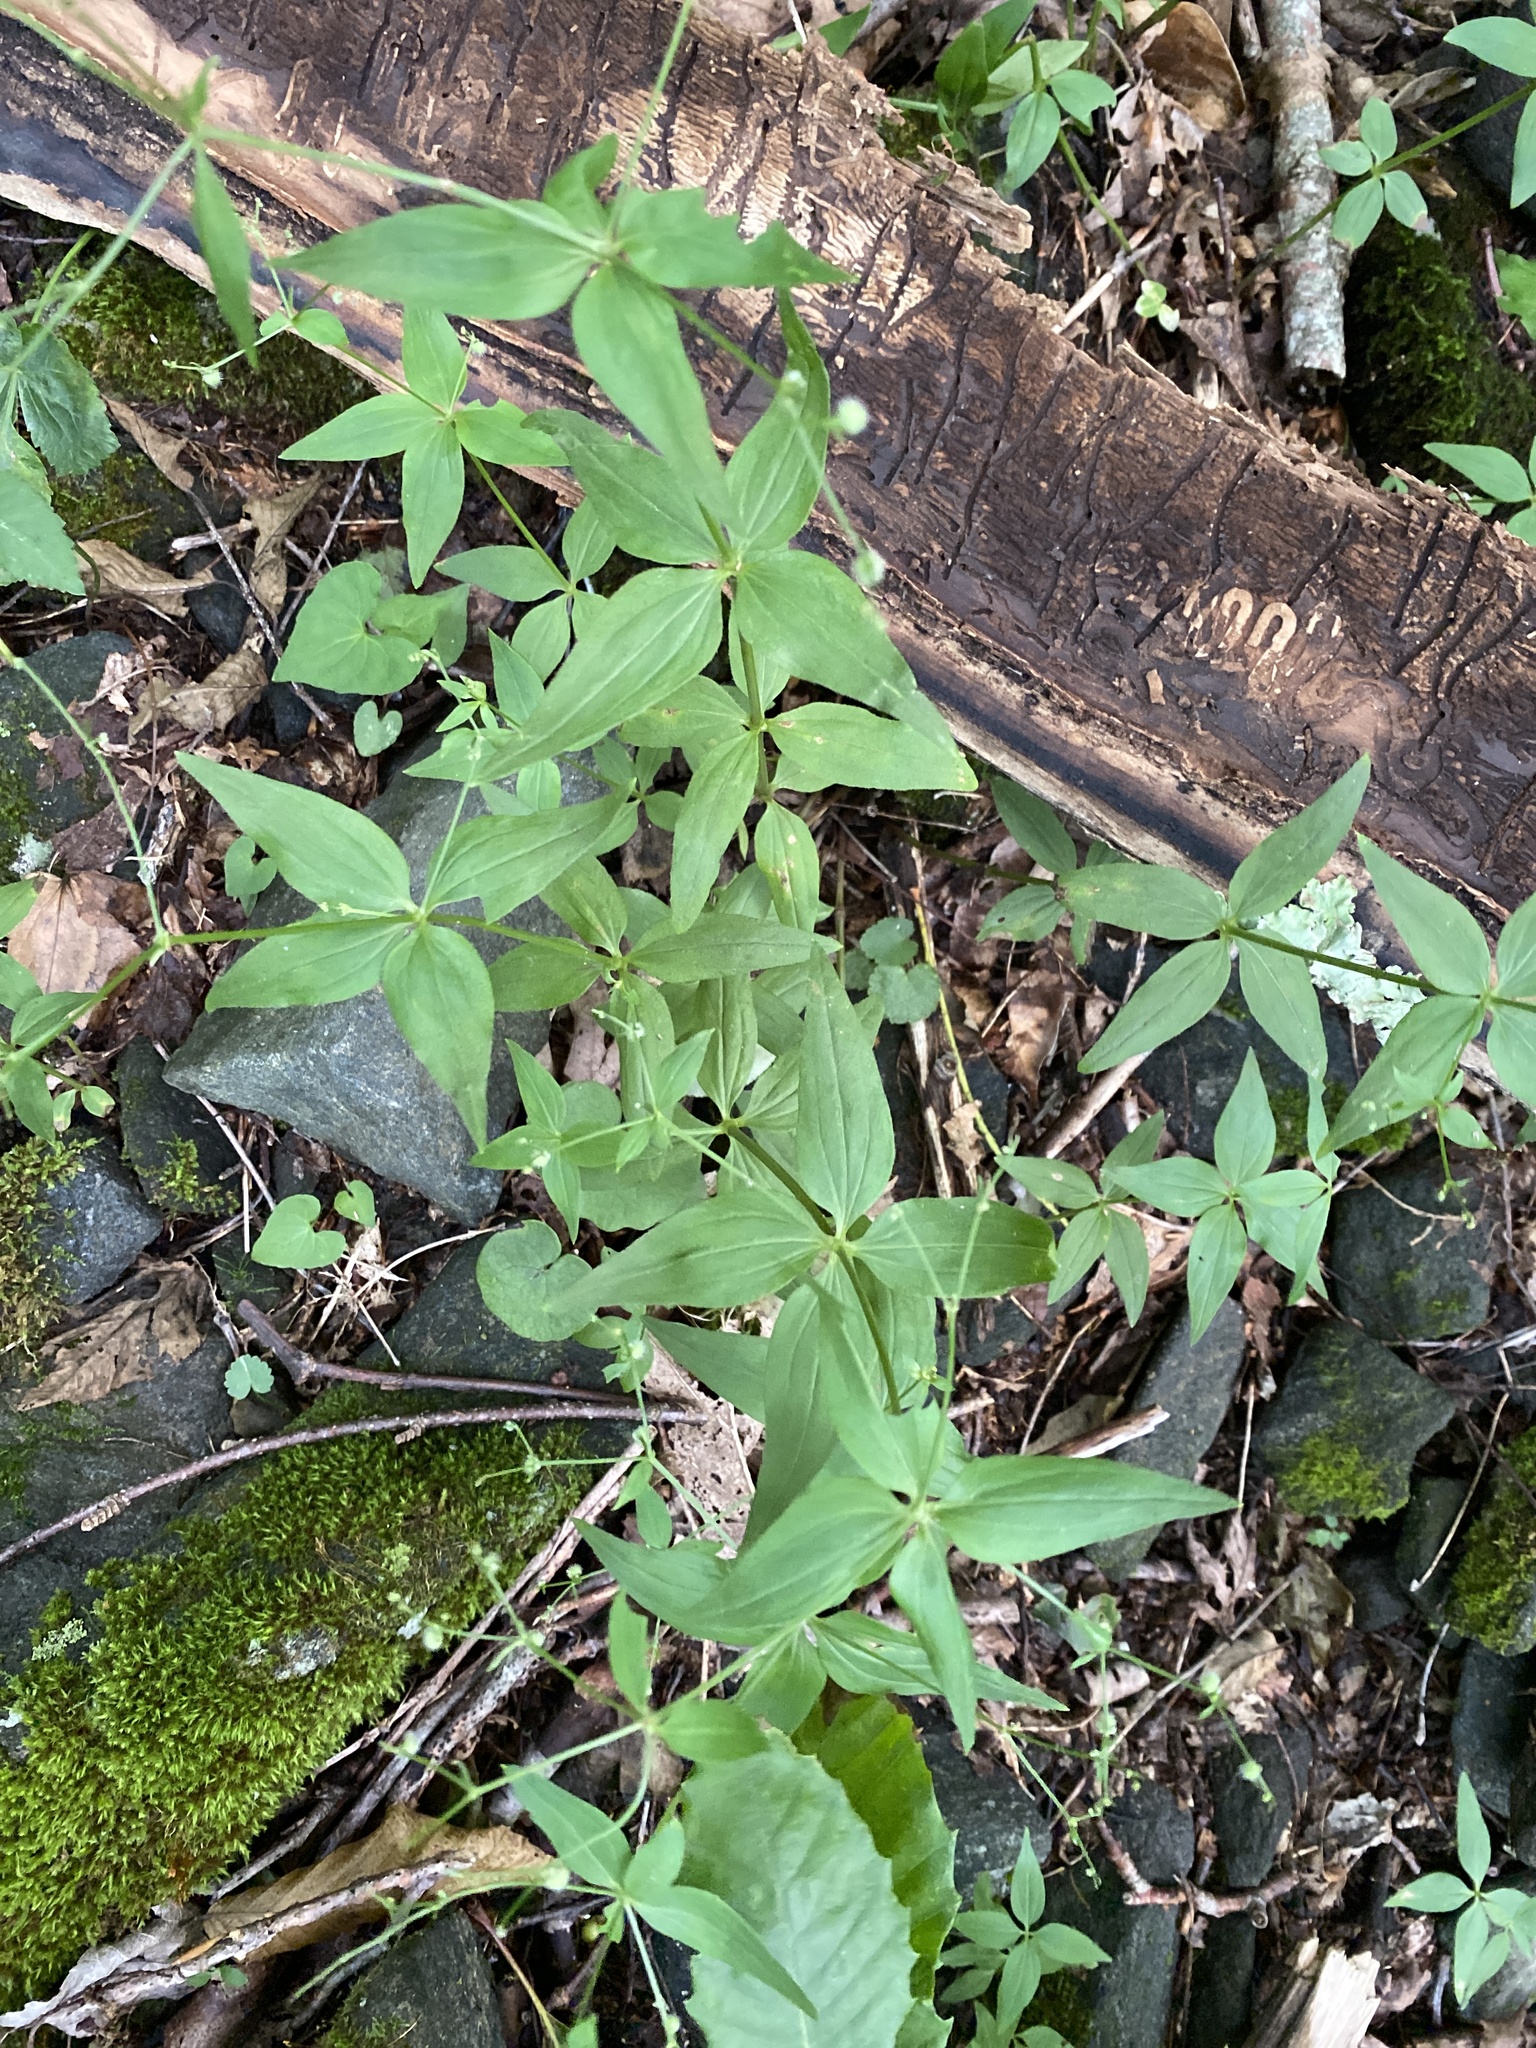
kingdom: Plantae
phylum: Tracheophyta
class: Magnoliopsida
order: Gentianales
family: Rubiaceae
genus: Galium
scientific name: Galium lanceolatum
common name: Lance-leaved wild licorice
